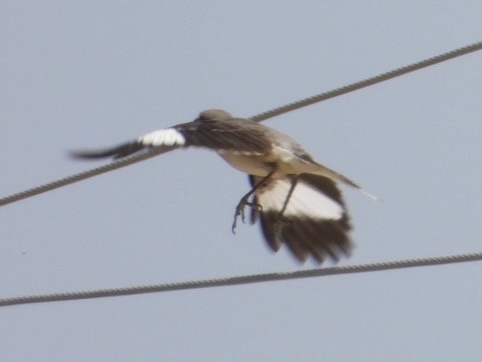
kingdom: Animalia
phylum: Chordata
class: Aves
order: Passeriformes
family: Mimidae
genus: Mimus
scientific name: Mimus polyglottos
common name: Northern mockingbird
